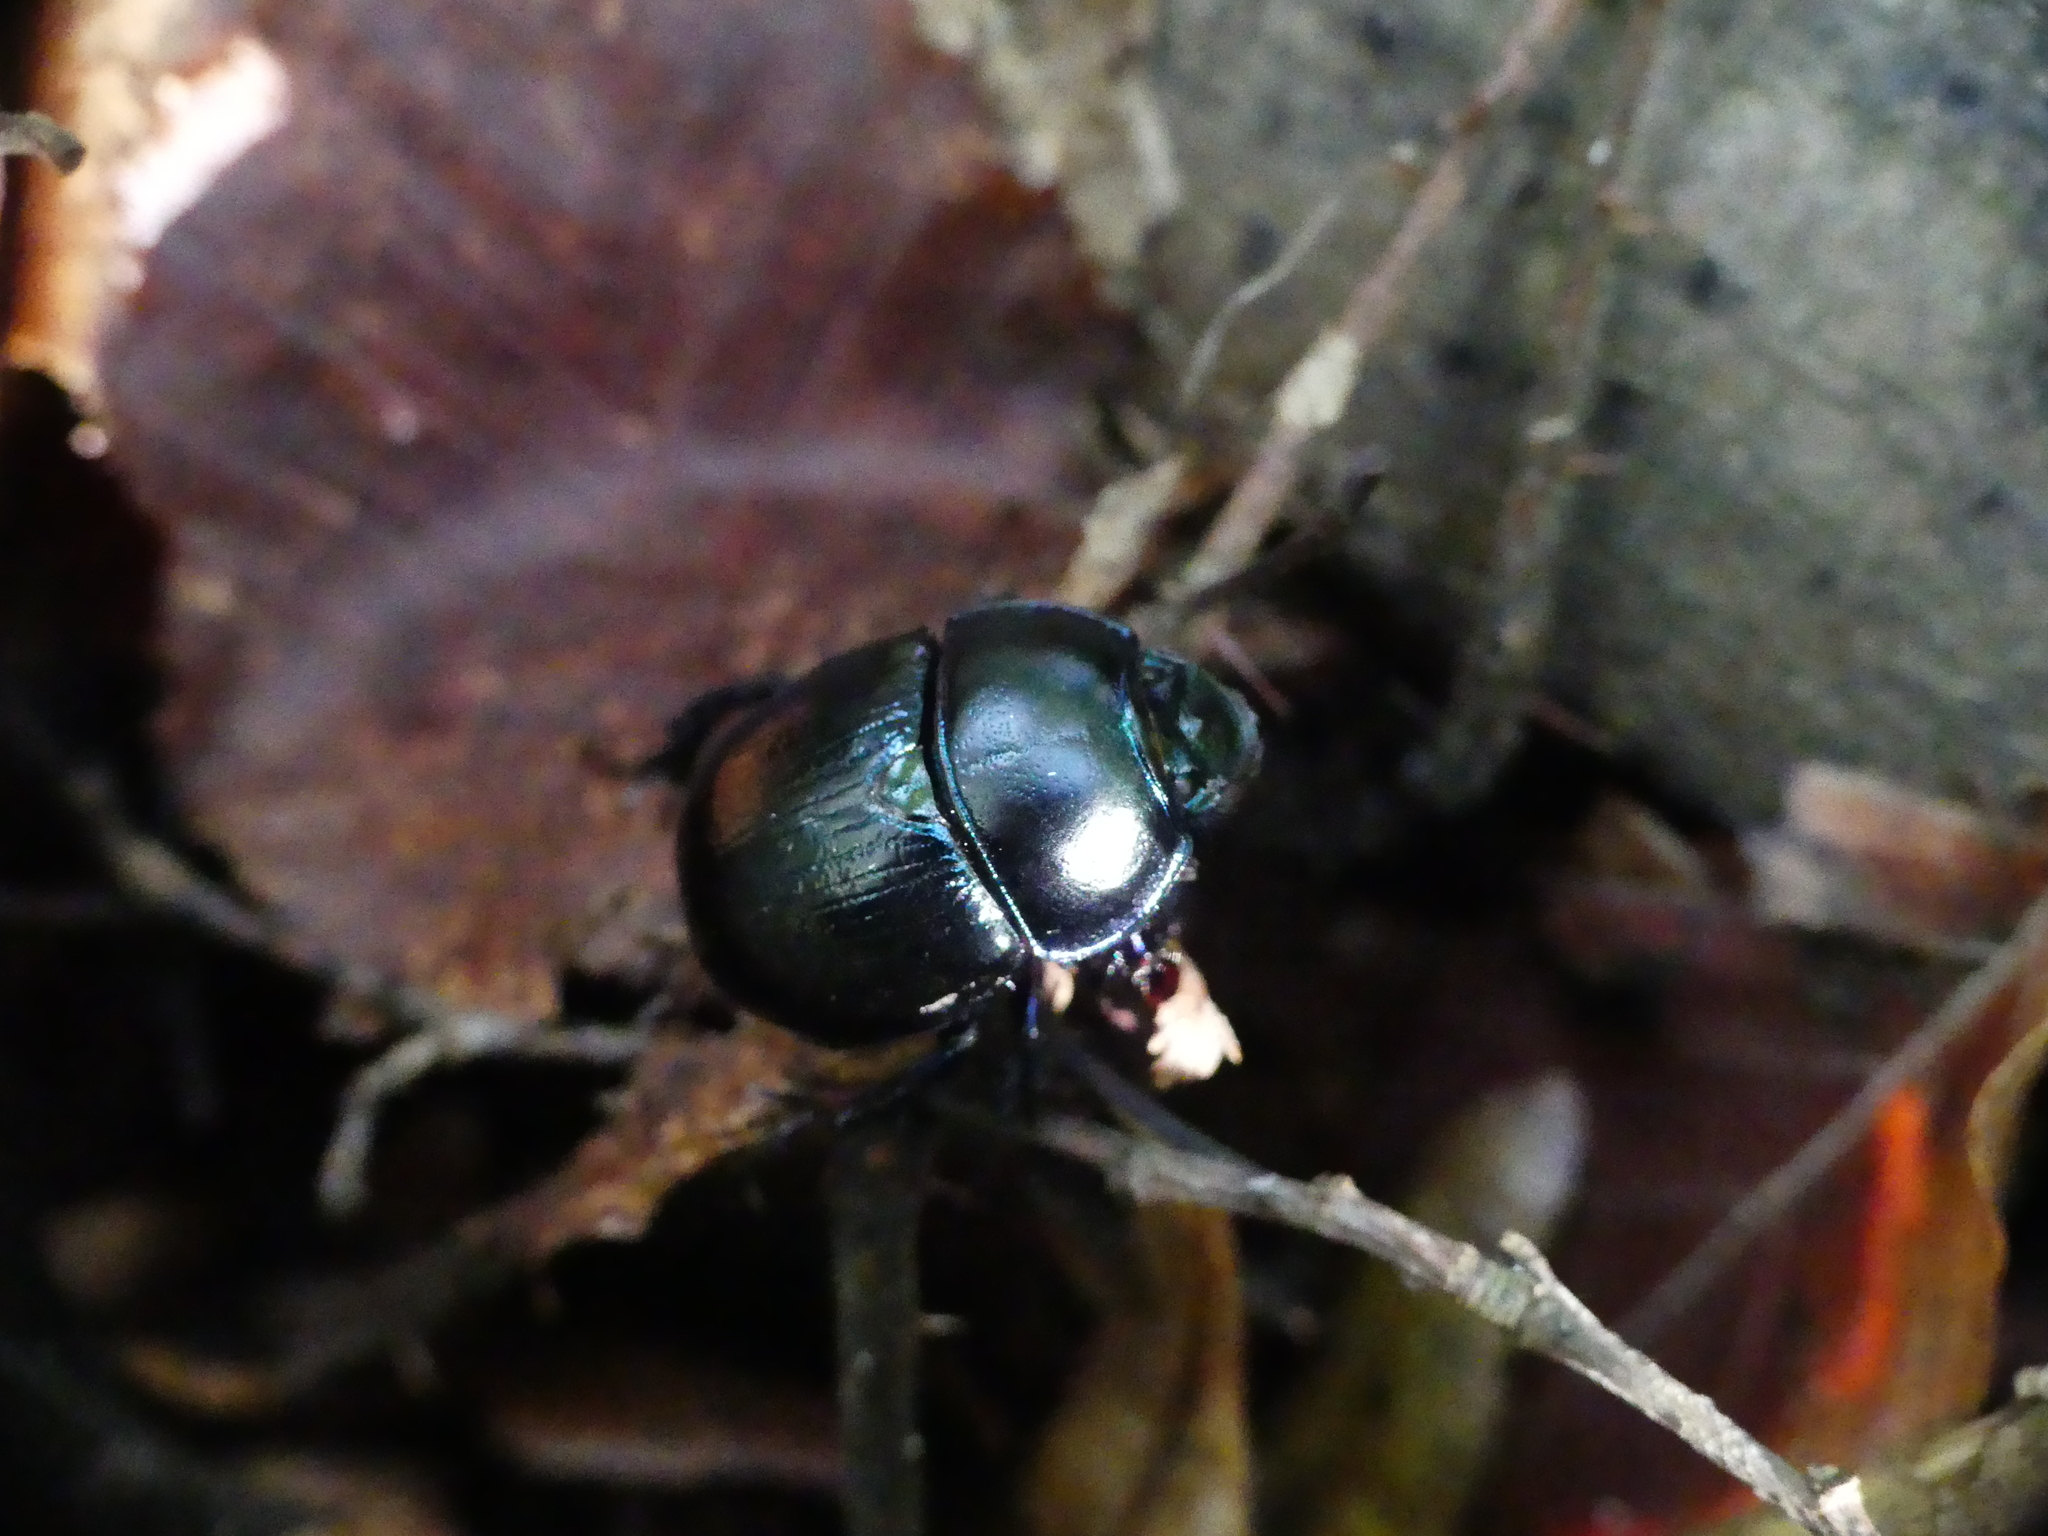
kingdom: Animalia
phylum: Arthropoda
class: Insecta
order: Coleoptera
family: Geotrupidae
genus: Anoplotrupes
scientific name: Anoplotrupes stercorosus
